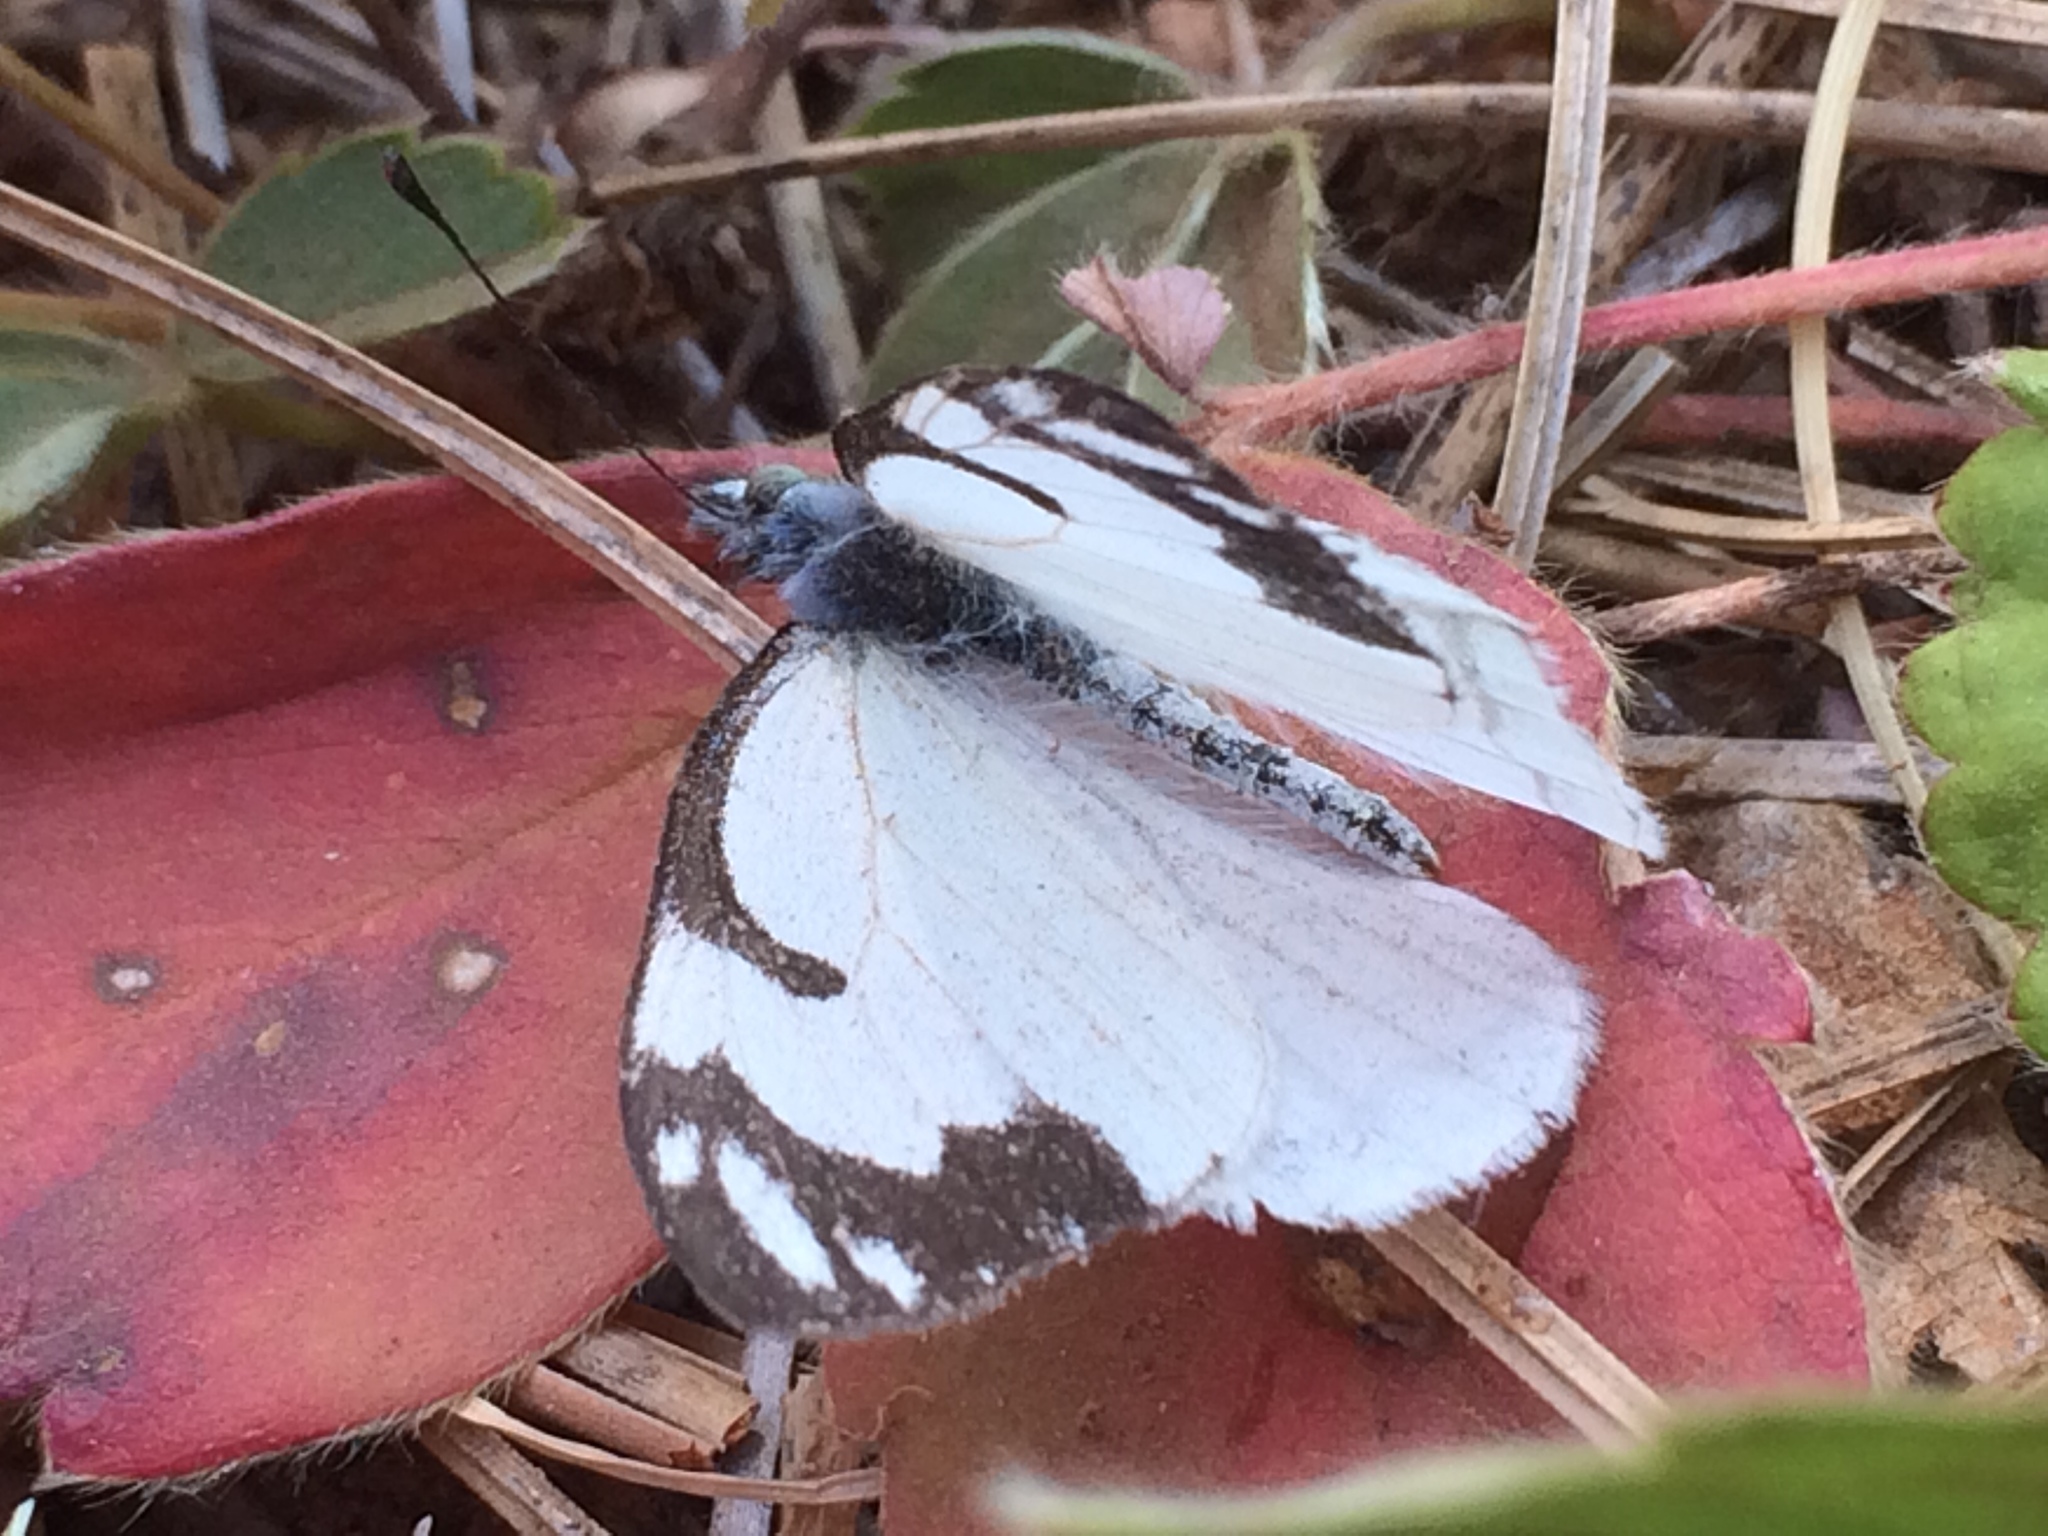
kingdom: Animalia
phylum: Arthropoda
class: Insecta
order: Lepidoptera
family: Pieridae
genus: Neophasia
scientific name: Neophasia menapia
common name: Pine white
